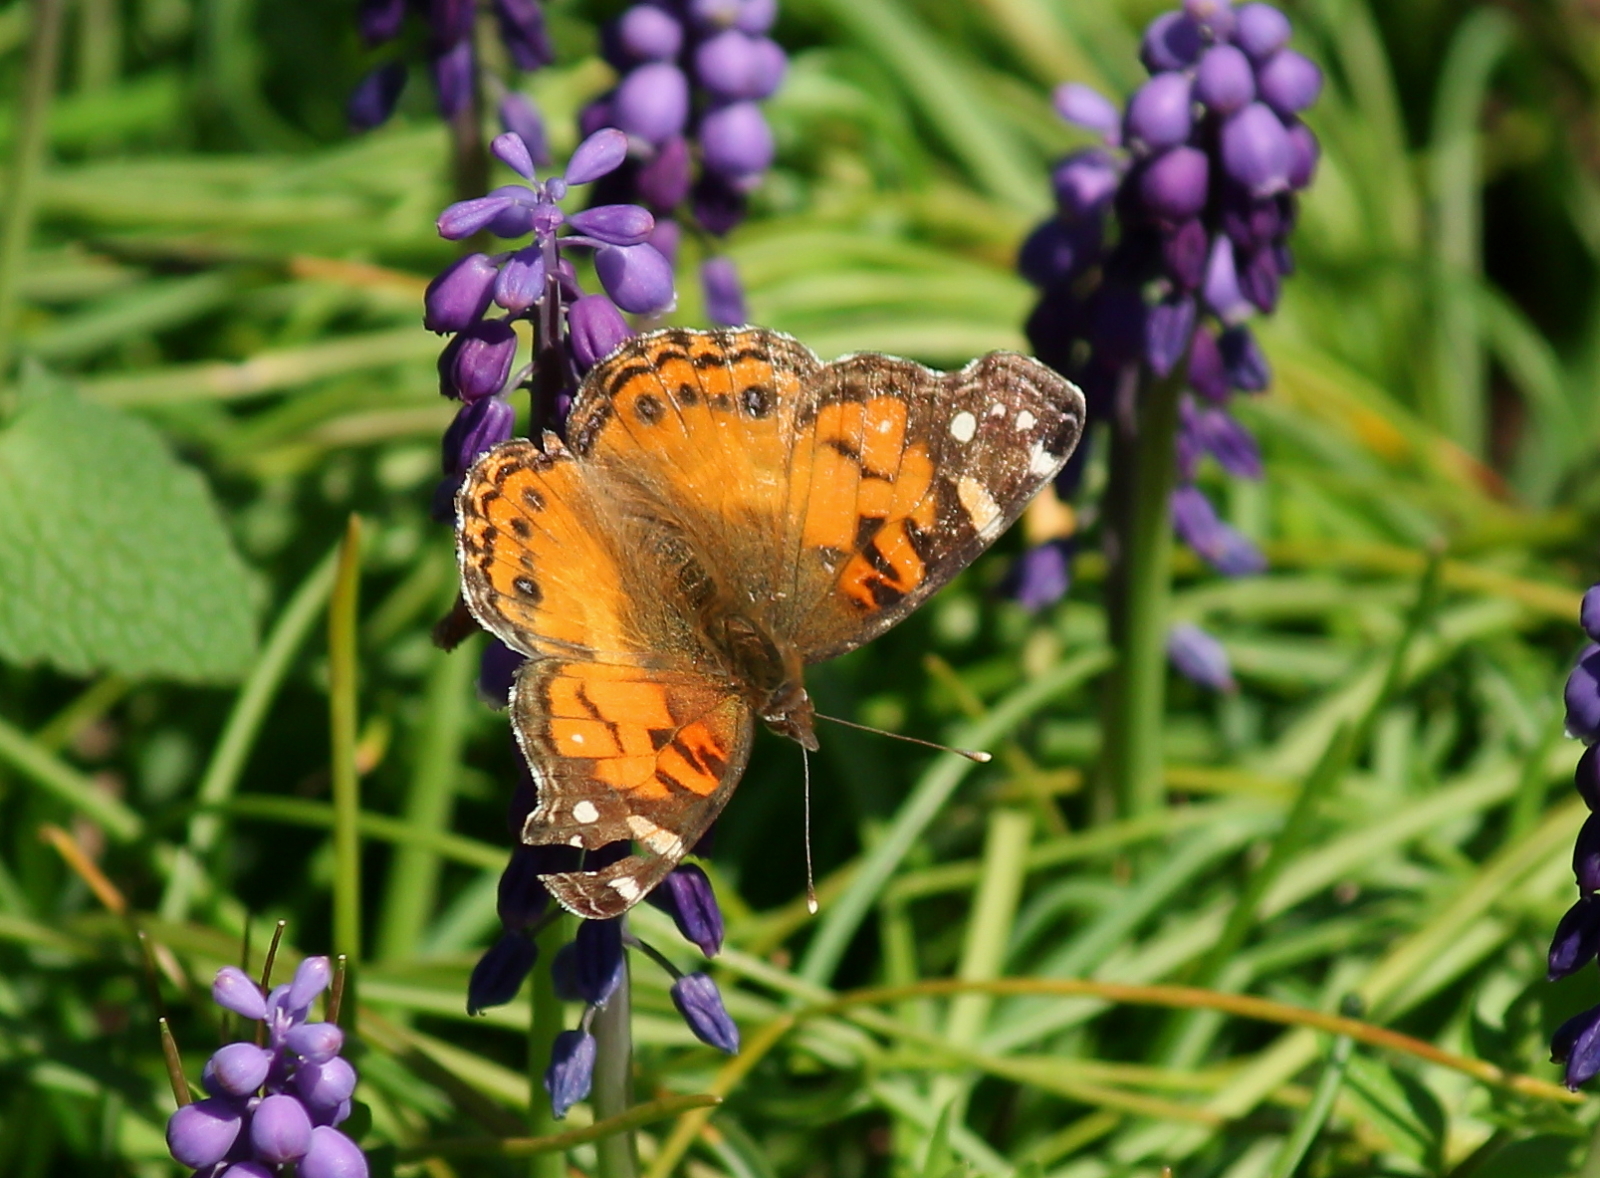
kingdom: Animalia
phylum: Arthropoda
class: Insecta
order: Lepidoptera
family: Nymphalidae
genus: Vanessa
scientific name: Vanessa virginiensis
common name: American lady
